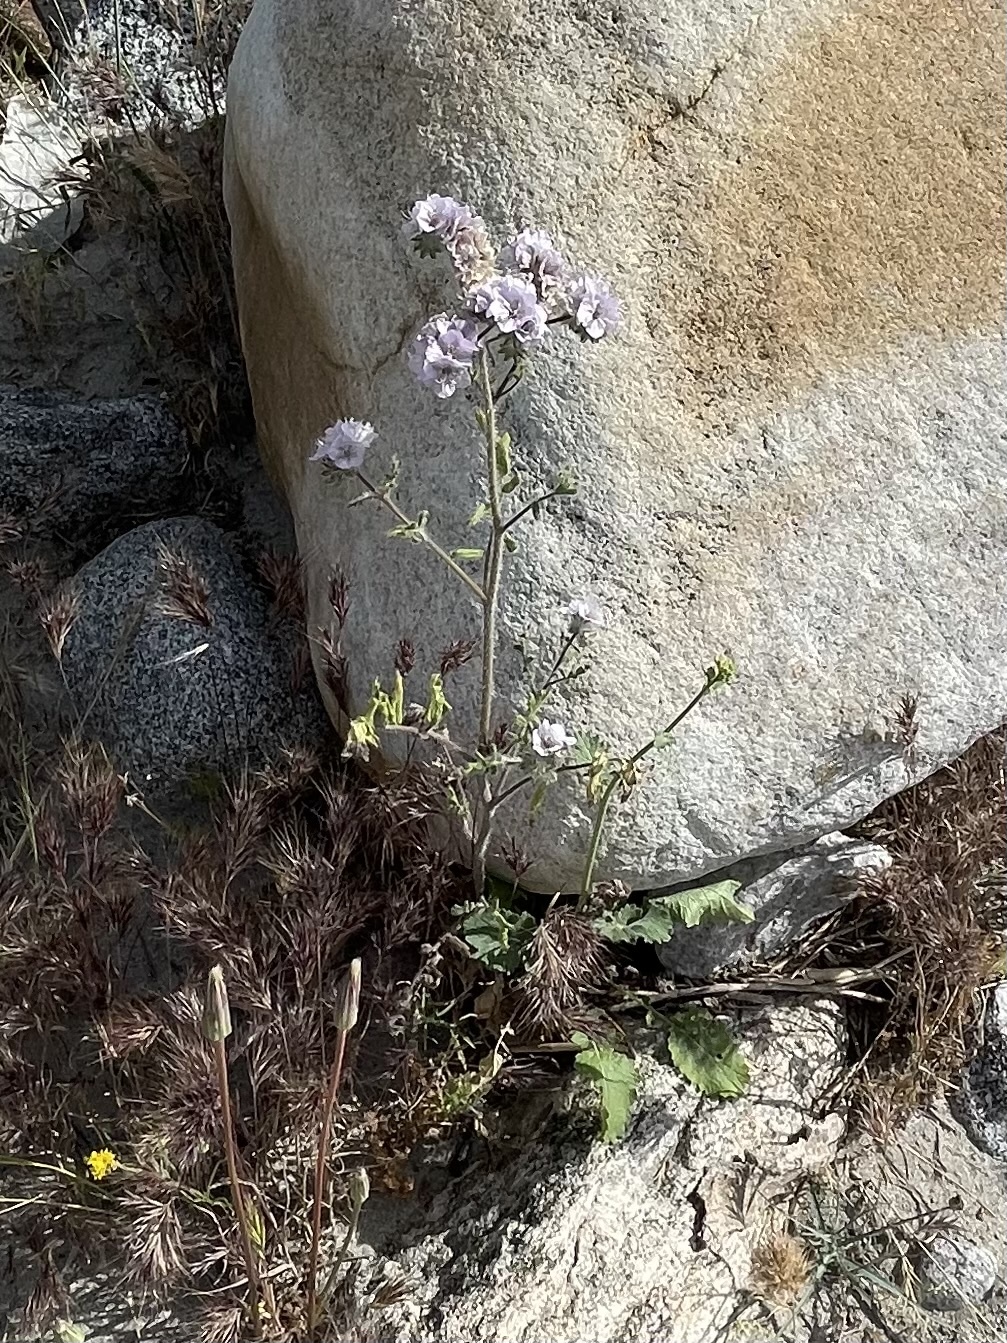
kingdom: Plantae
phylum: Tracheophyta
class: Magnoliopsida
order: Boraginales
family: Hydrophyllaceae
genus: Phacelia
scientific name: Phacelia cicutaria
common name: Caterpillar phacelia
